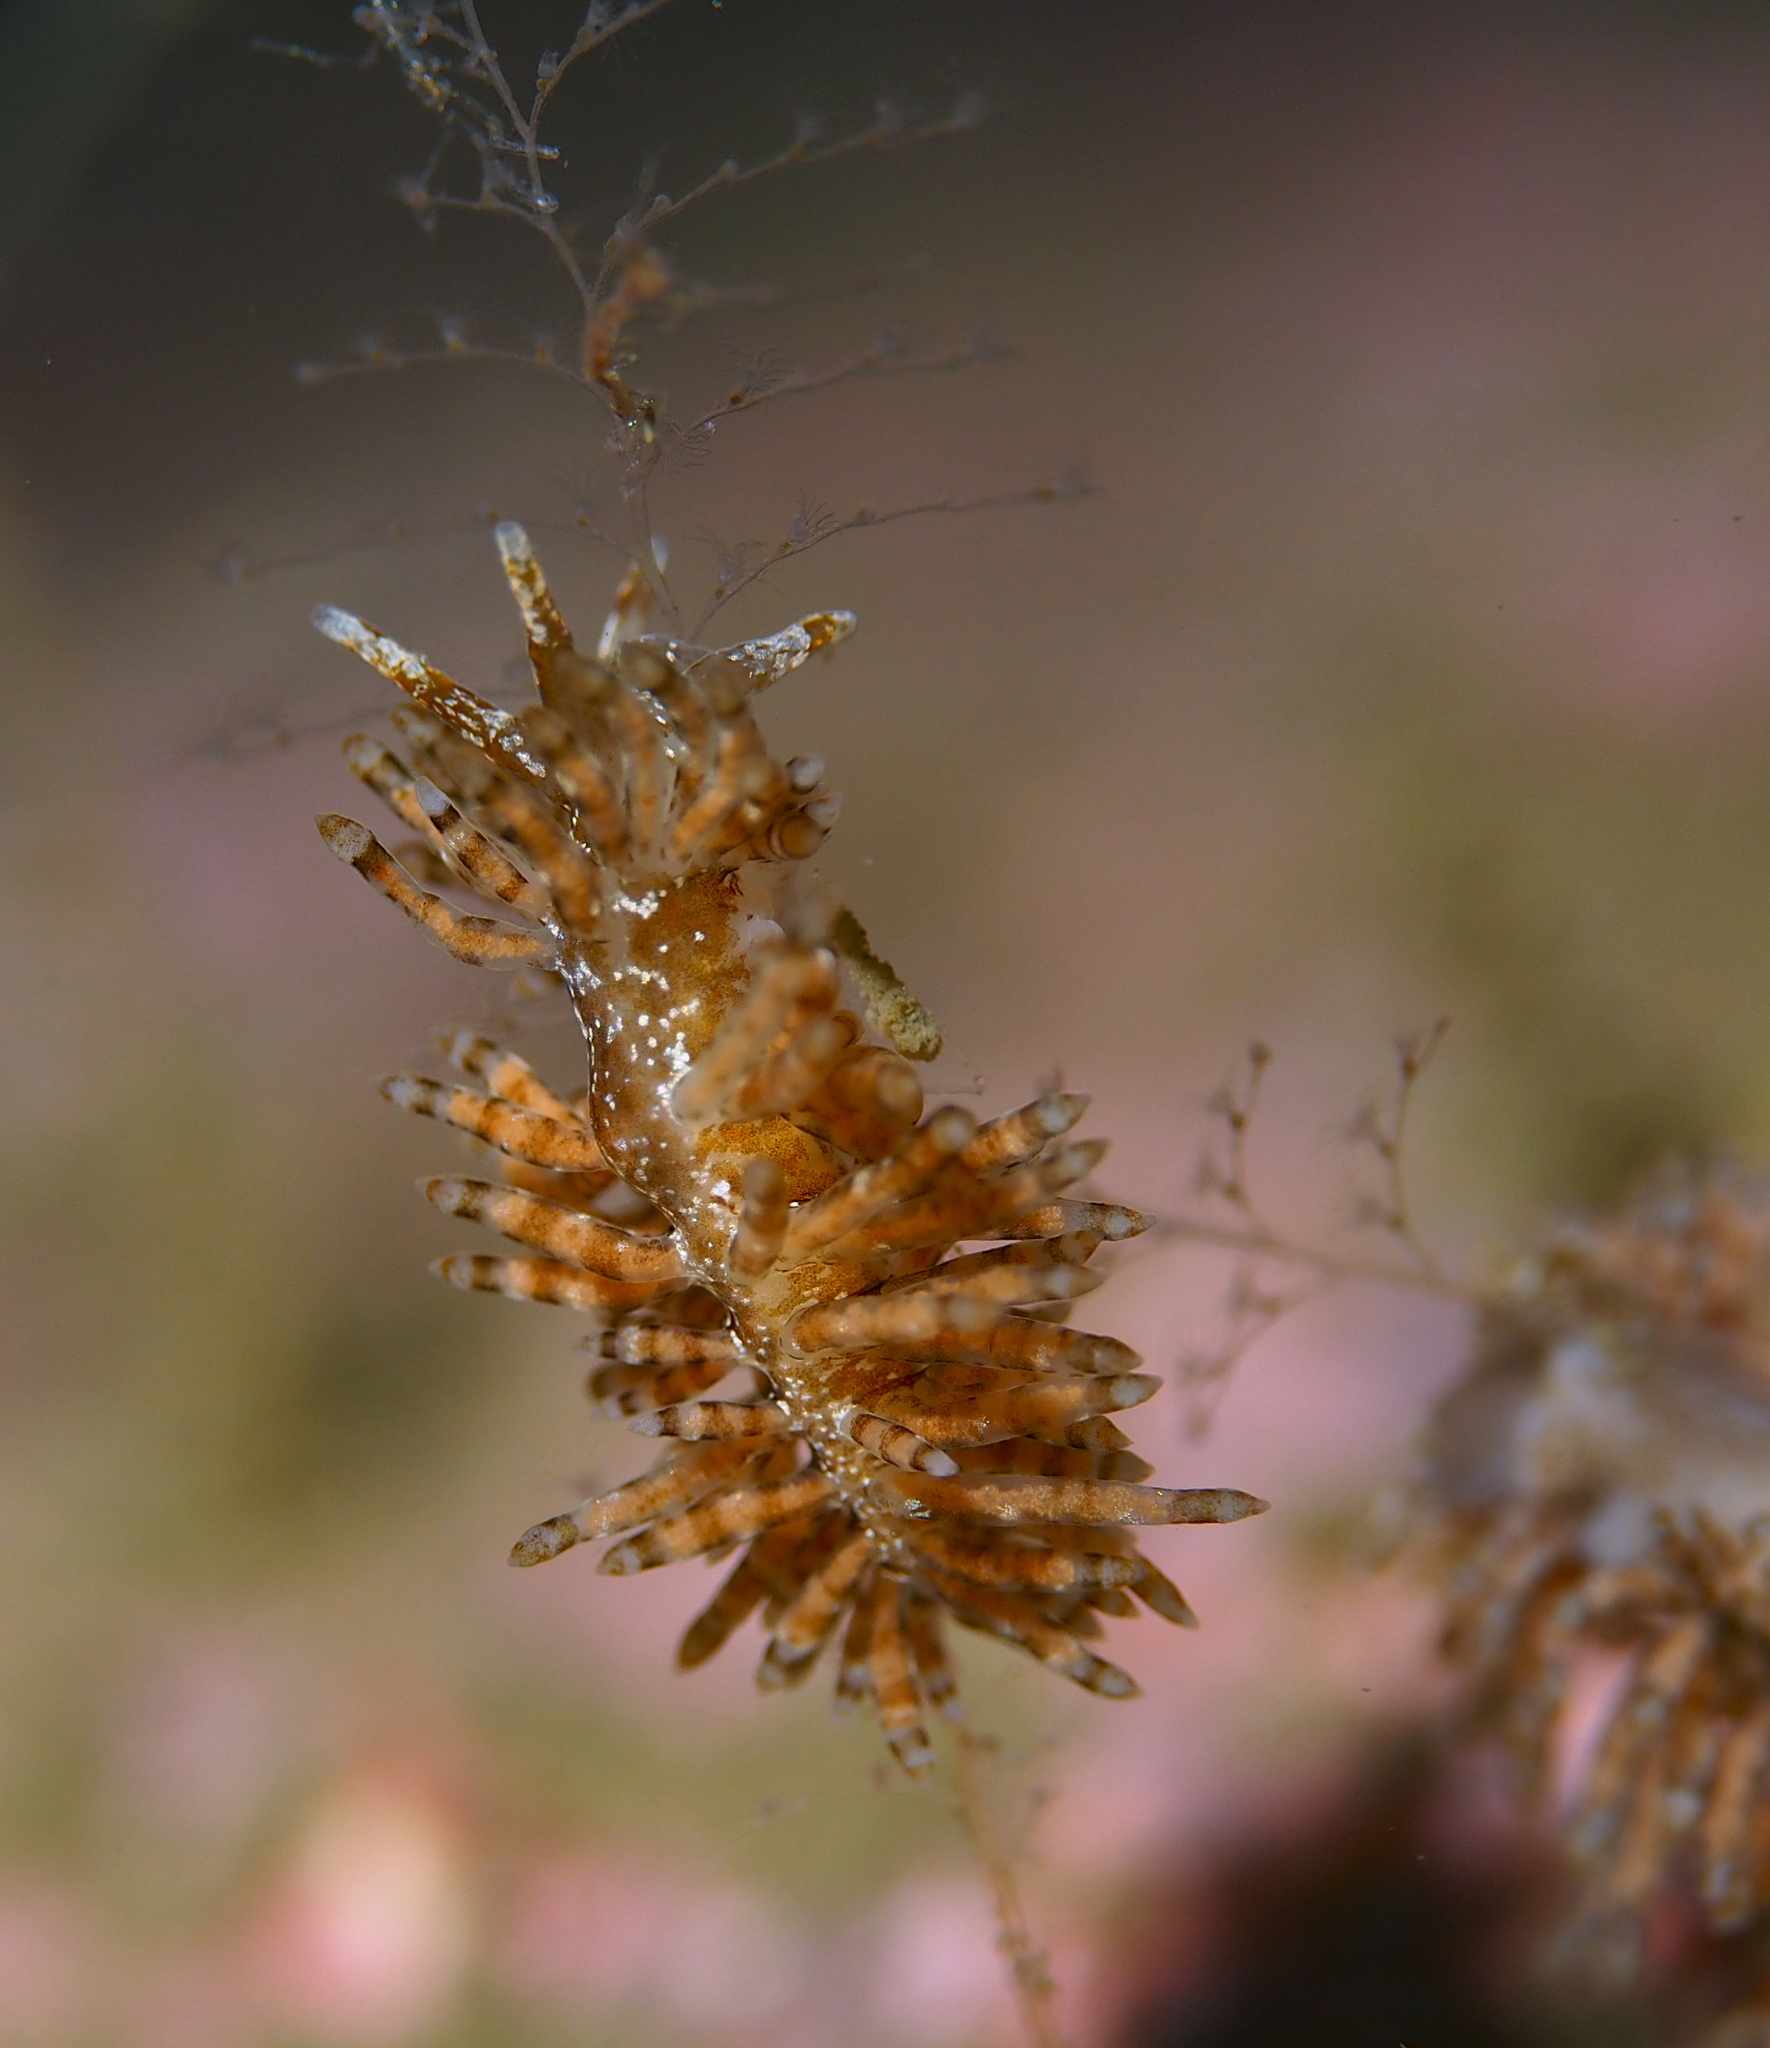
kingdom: Animalia
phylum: Mollusca
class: Gastropoda
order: Nudibranchia
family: Eubranchidae
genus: Eubranchus
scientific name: Eubranchus vittatus
